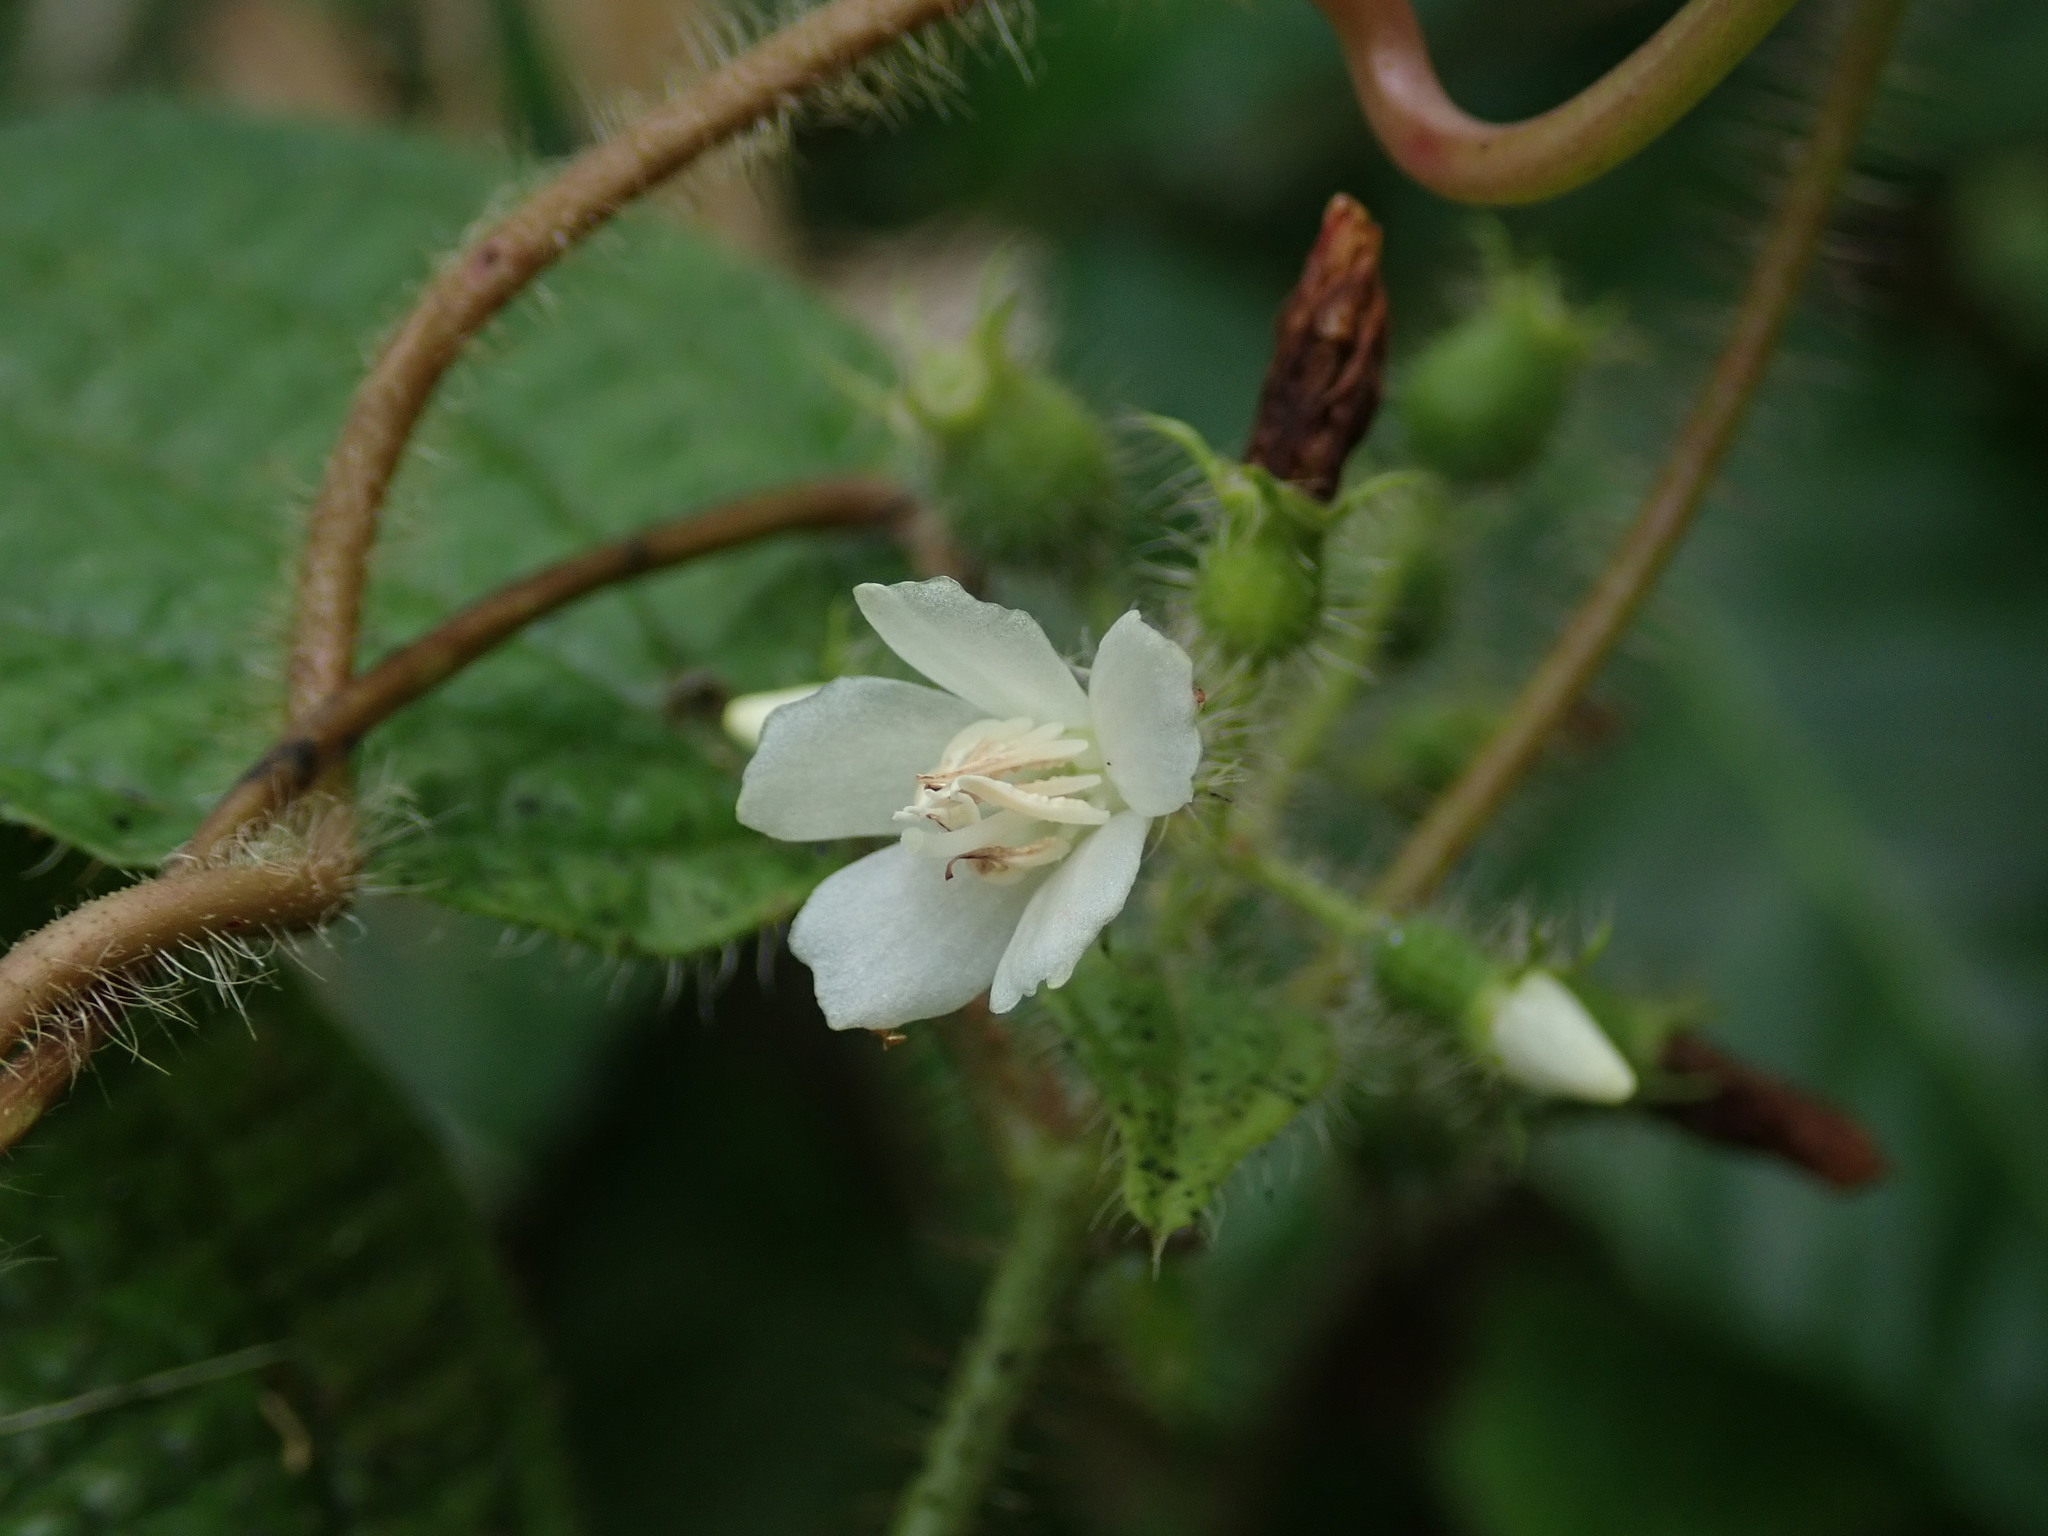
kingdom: Plantae
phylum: Tracheophyta
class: Magnoliopsida
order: Myrtales
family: Melastomataceae
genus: Miconia
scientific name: Miconia crenata
